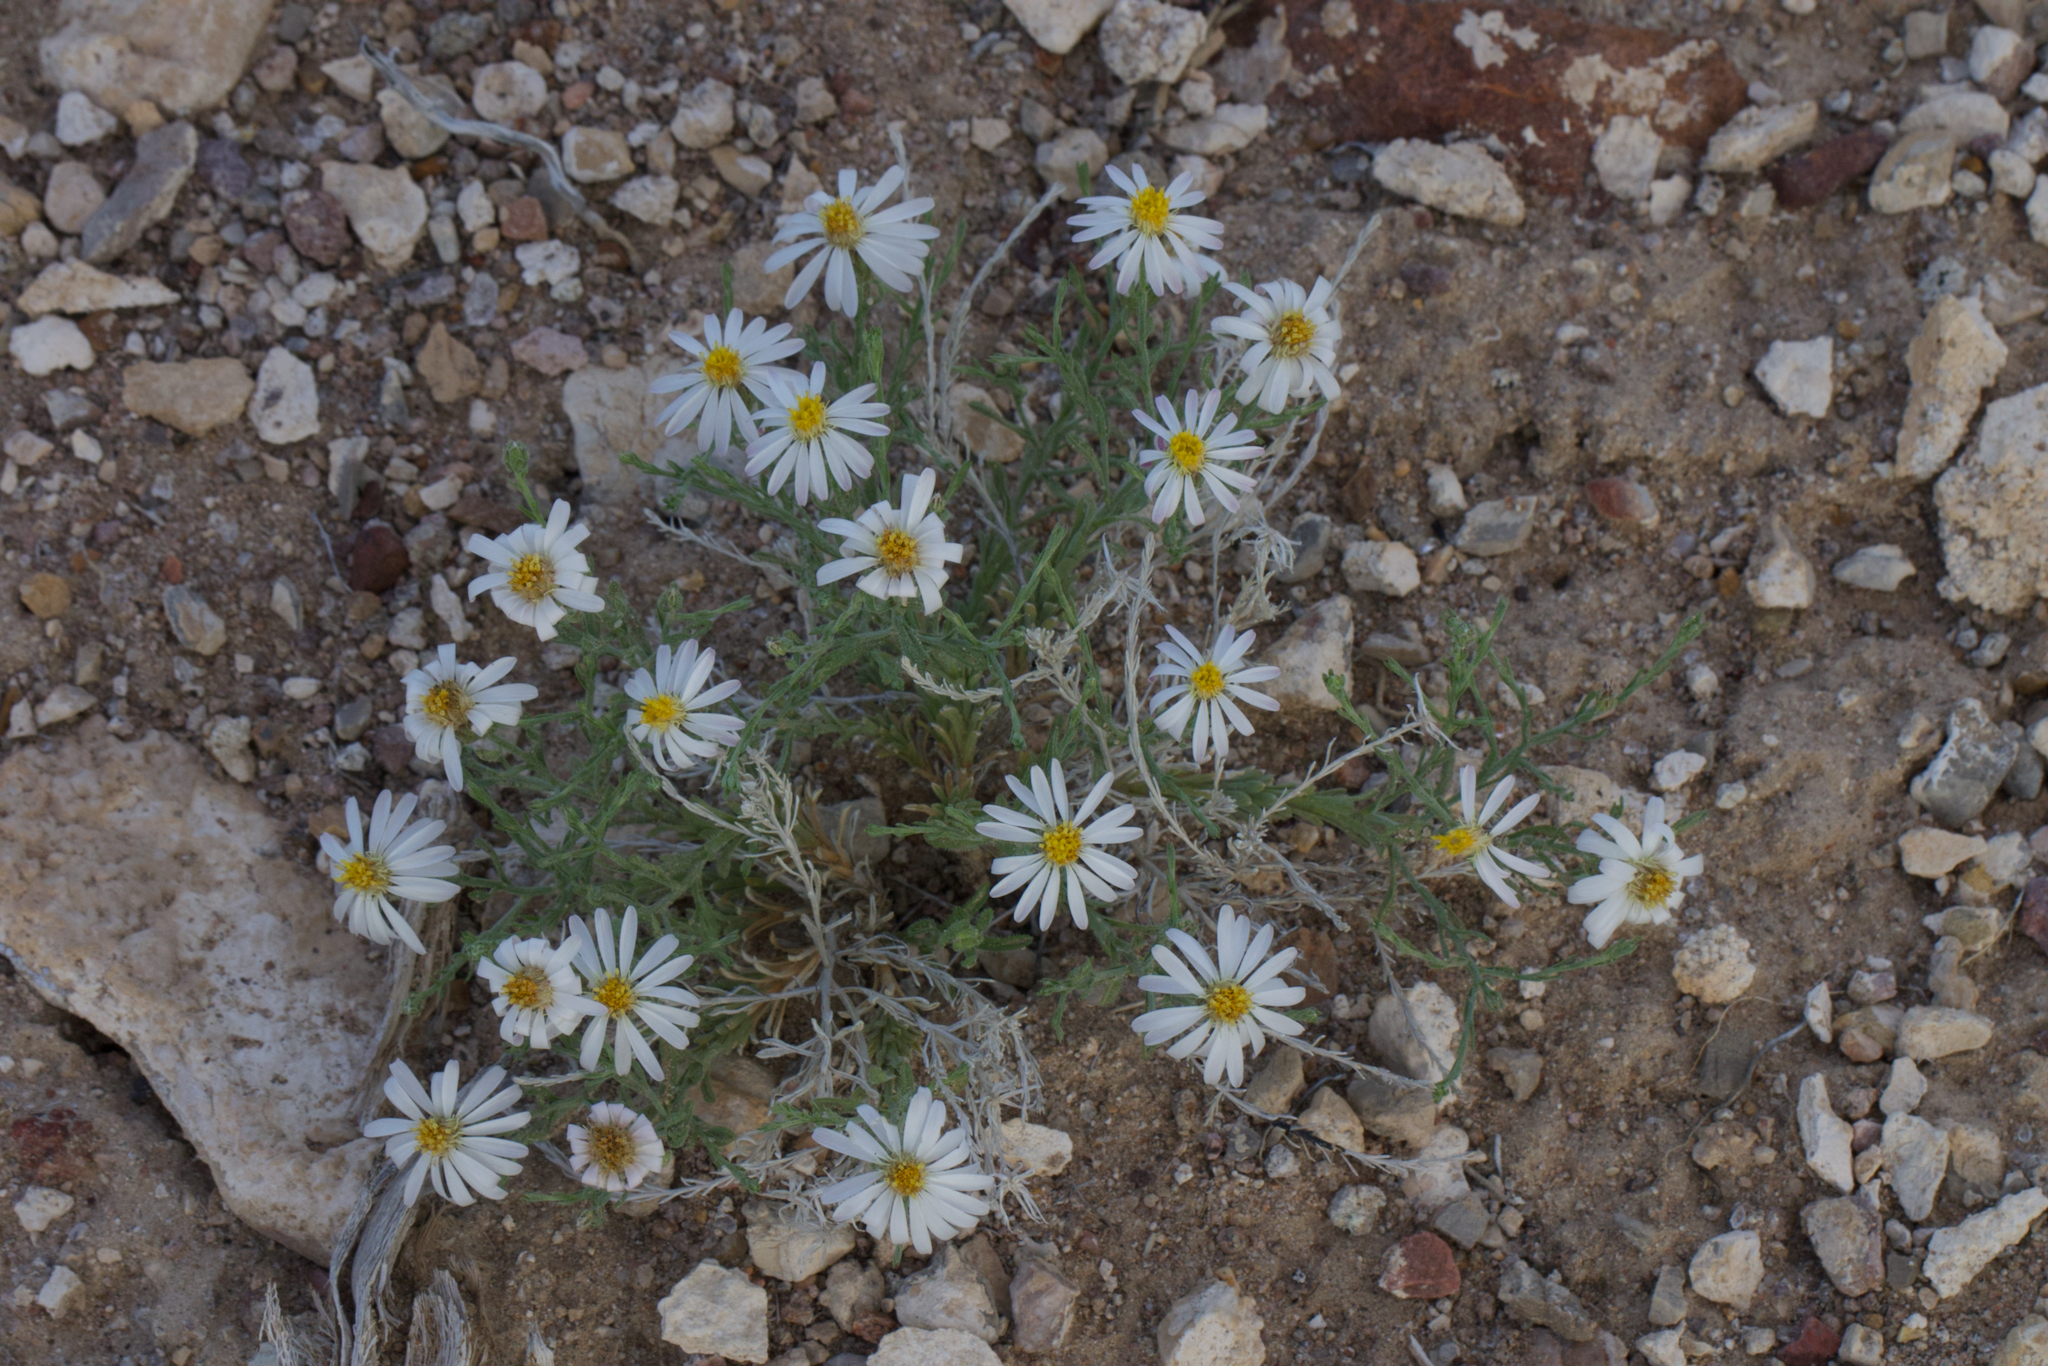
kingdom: Plantae
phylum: Tracheophyta
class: Magnoliopsida
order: Asterales
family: Asteraceae
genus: Chaetopappa
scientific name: Chaetopappa ericoides
